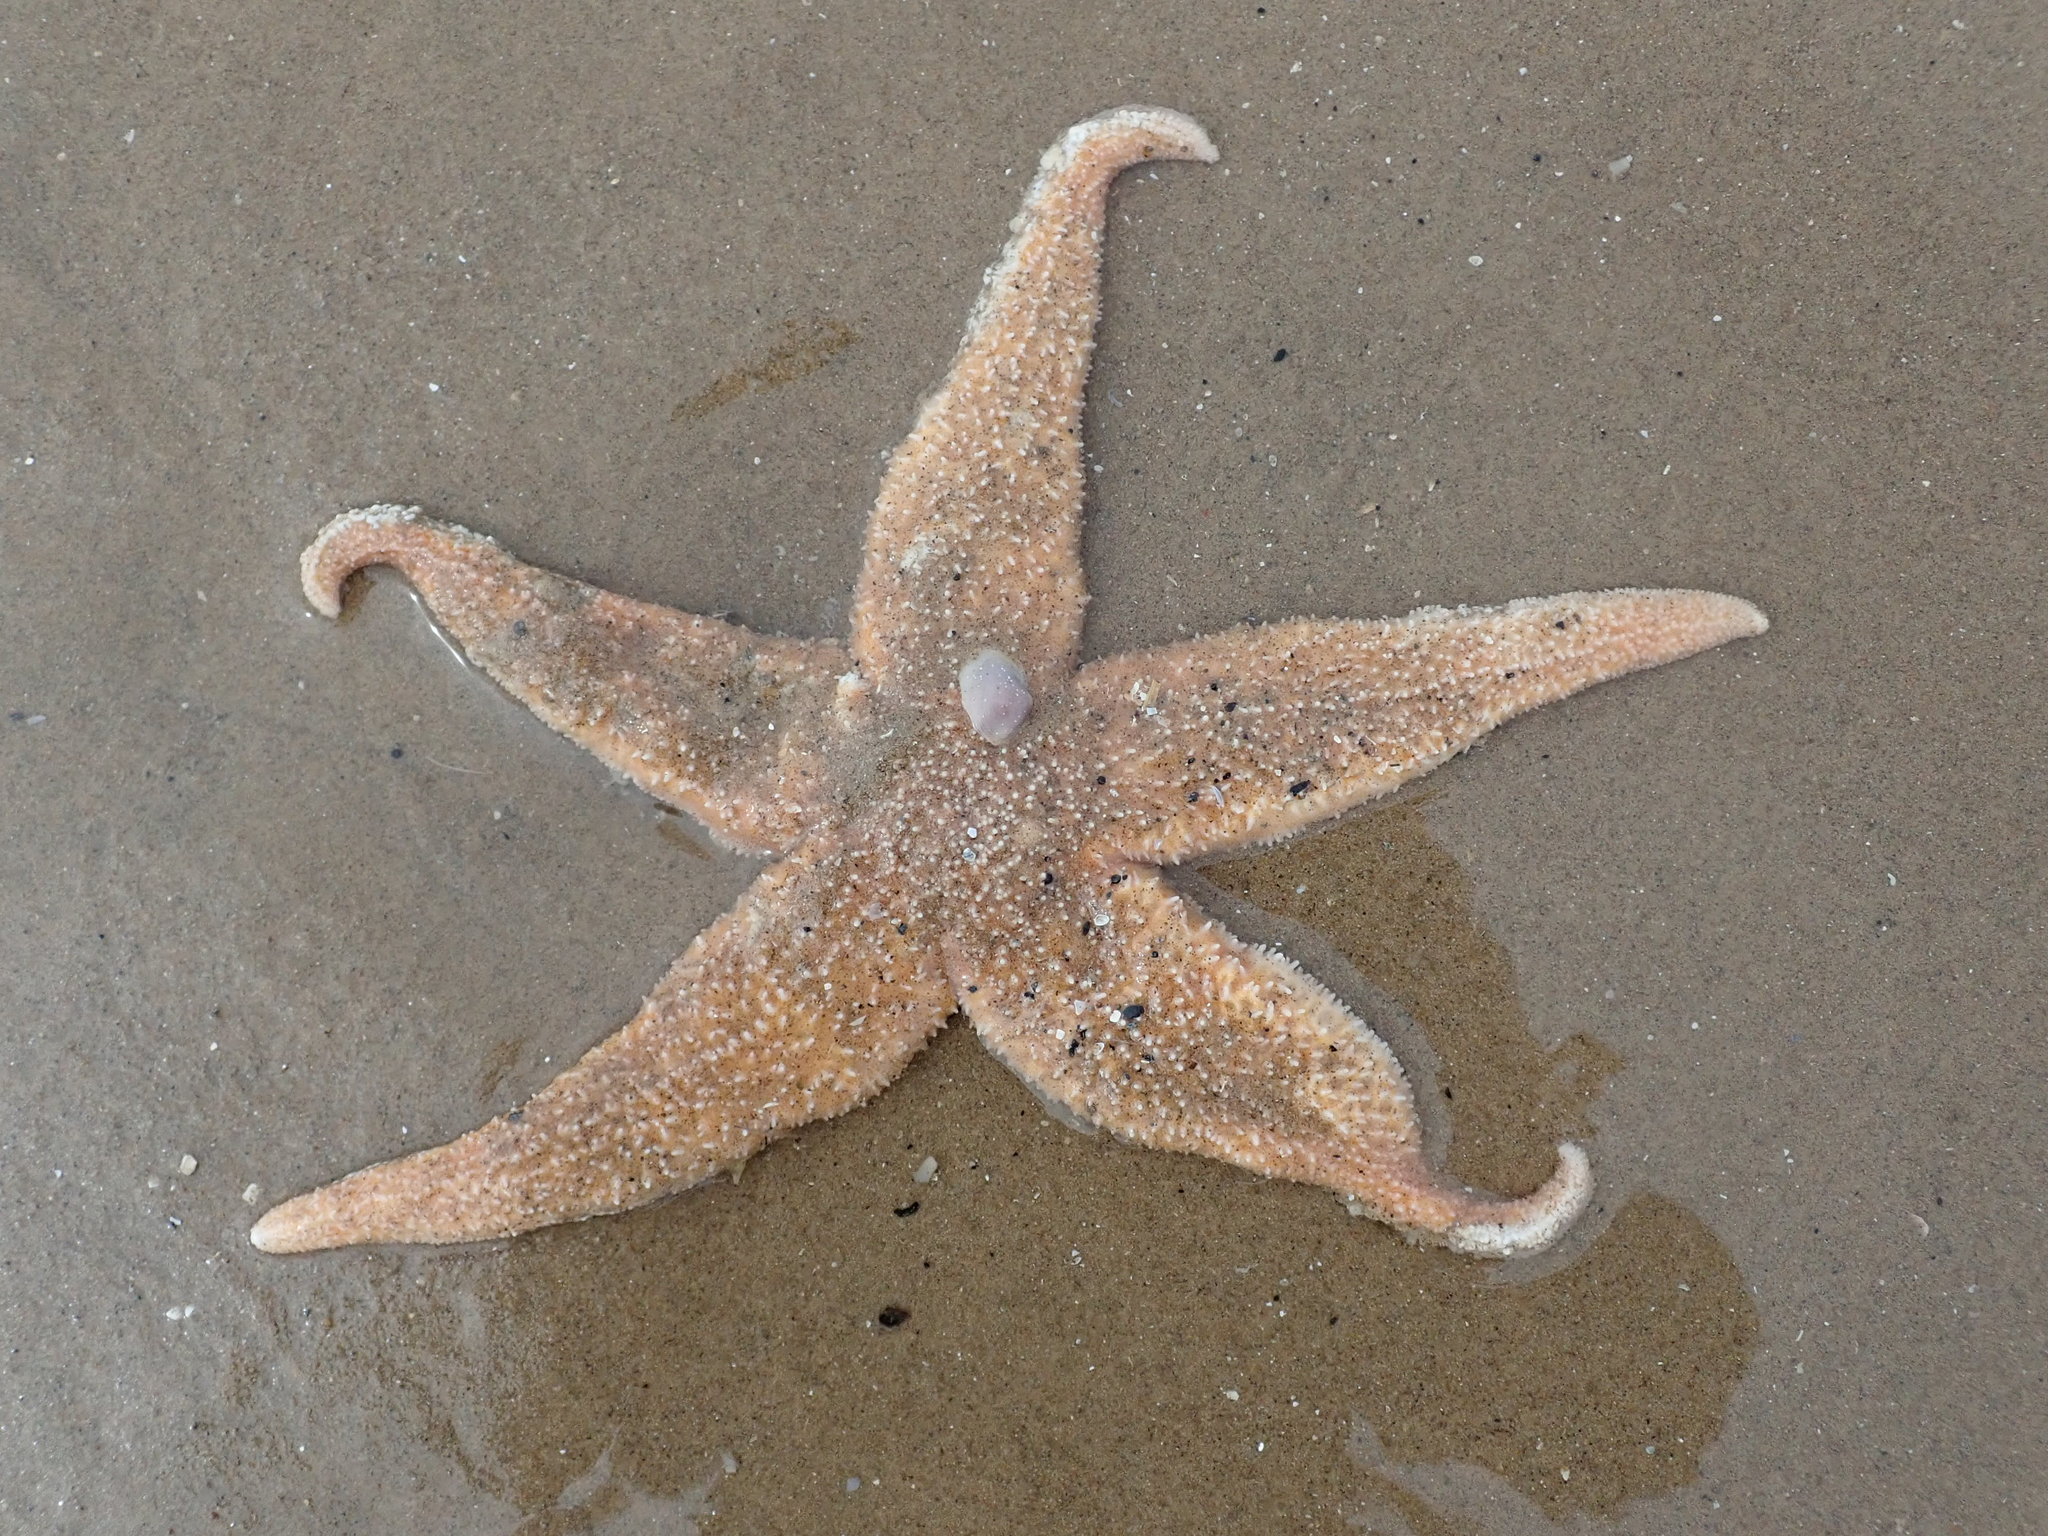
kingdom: Animalia
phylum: Echinodermata
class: Asteroidea
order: Forcipulatida
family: Asteriidae
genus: Asterias
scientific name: Asterias rubens
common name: Common starfish
